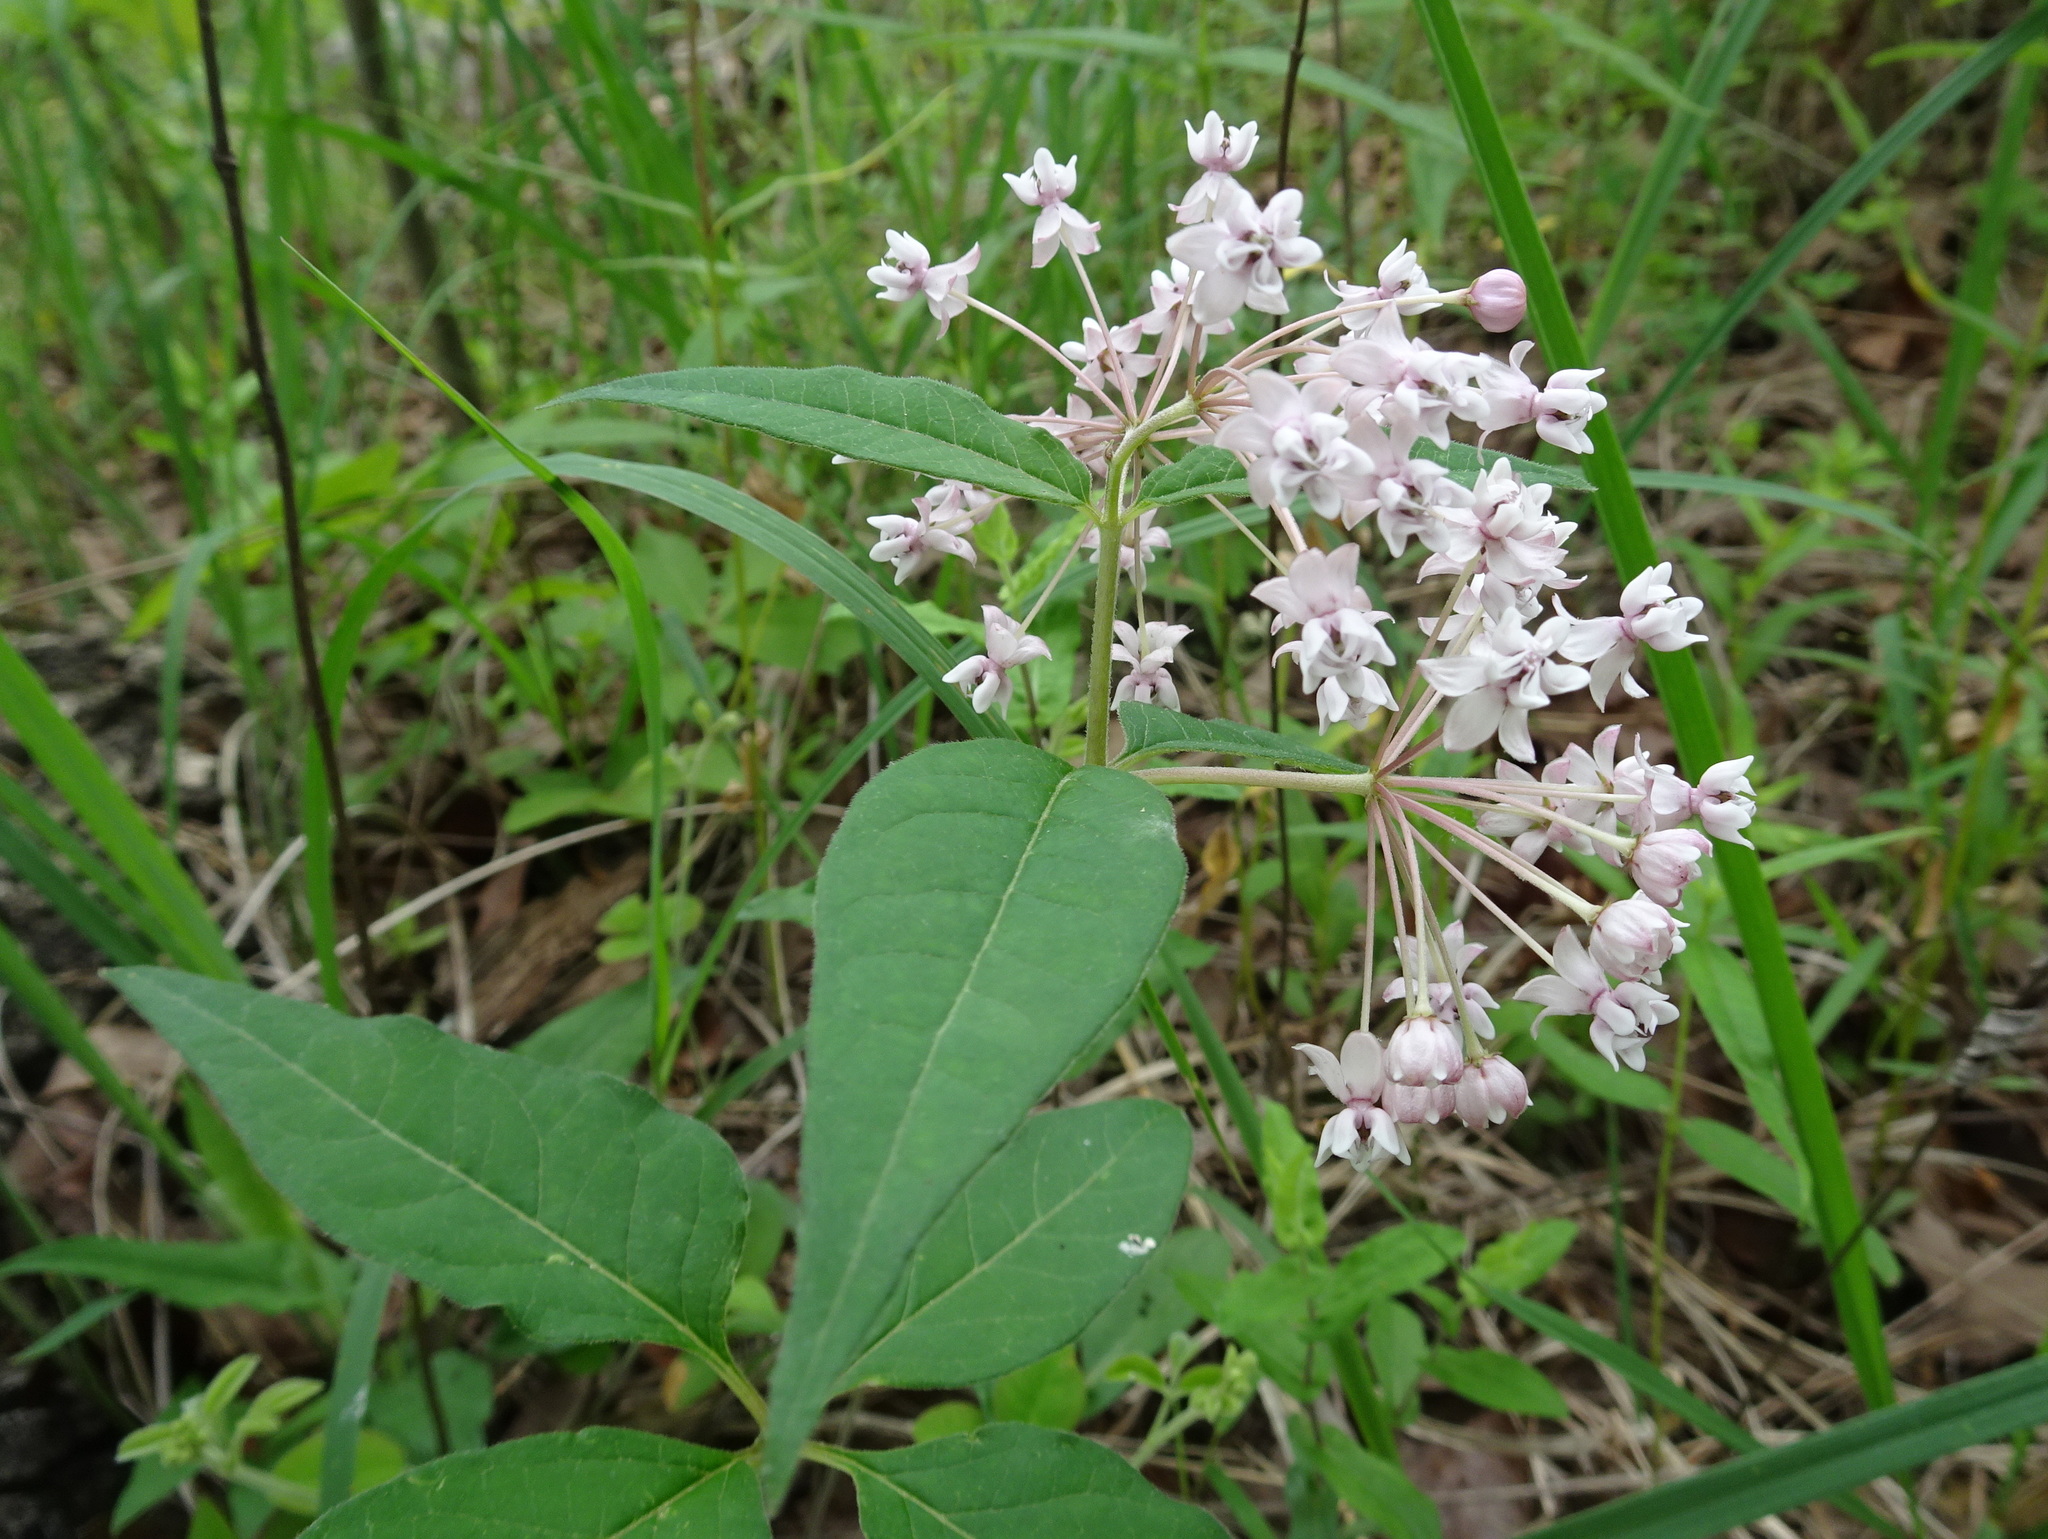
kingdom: Plantae
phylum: Tracheophyta
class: Magnoliopsida
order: Gentianales
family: Apocynaceae
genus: Asclepias
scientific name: Asclepias quadrifolia
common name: Whorled milkweed
